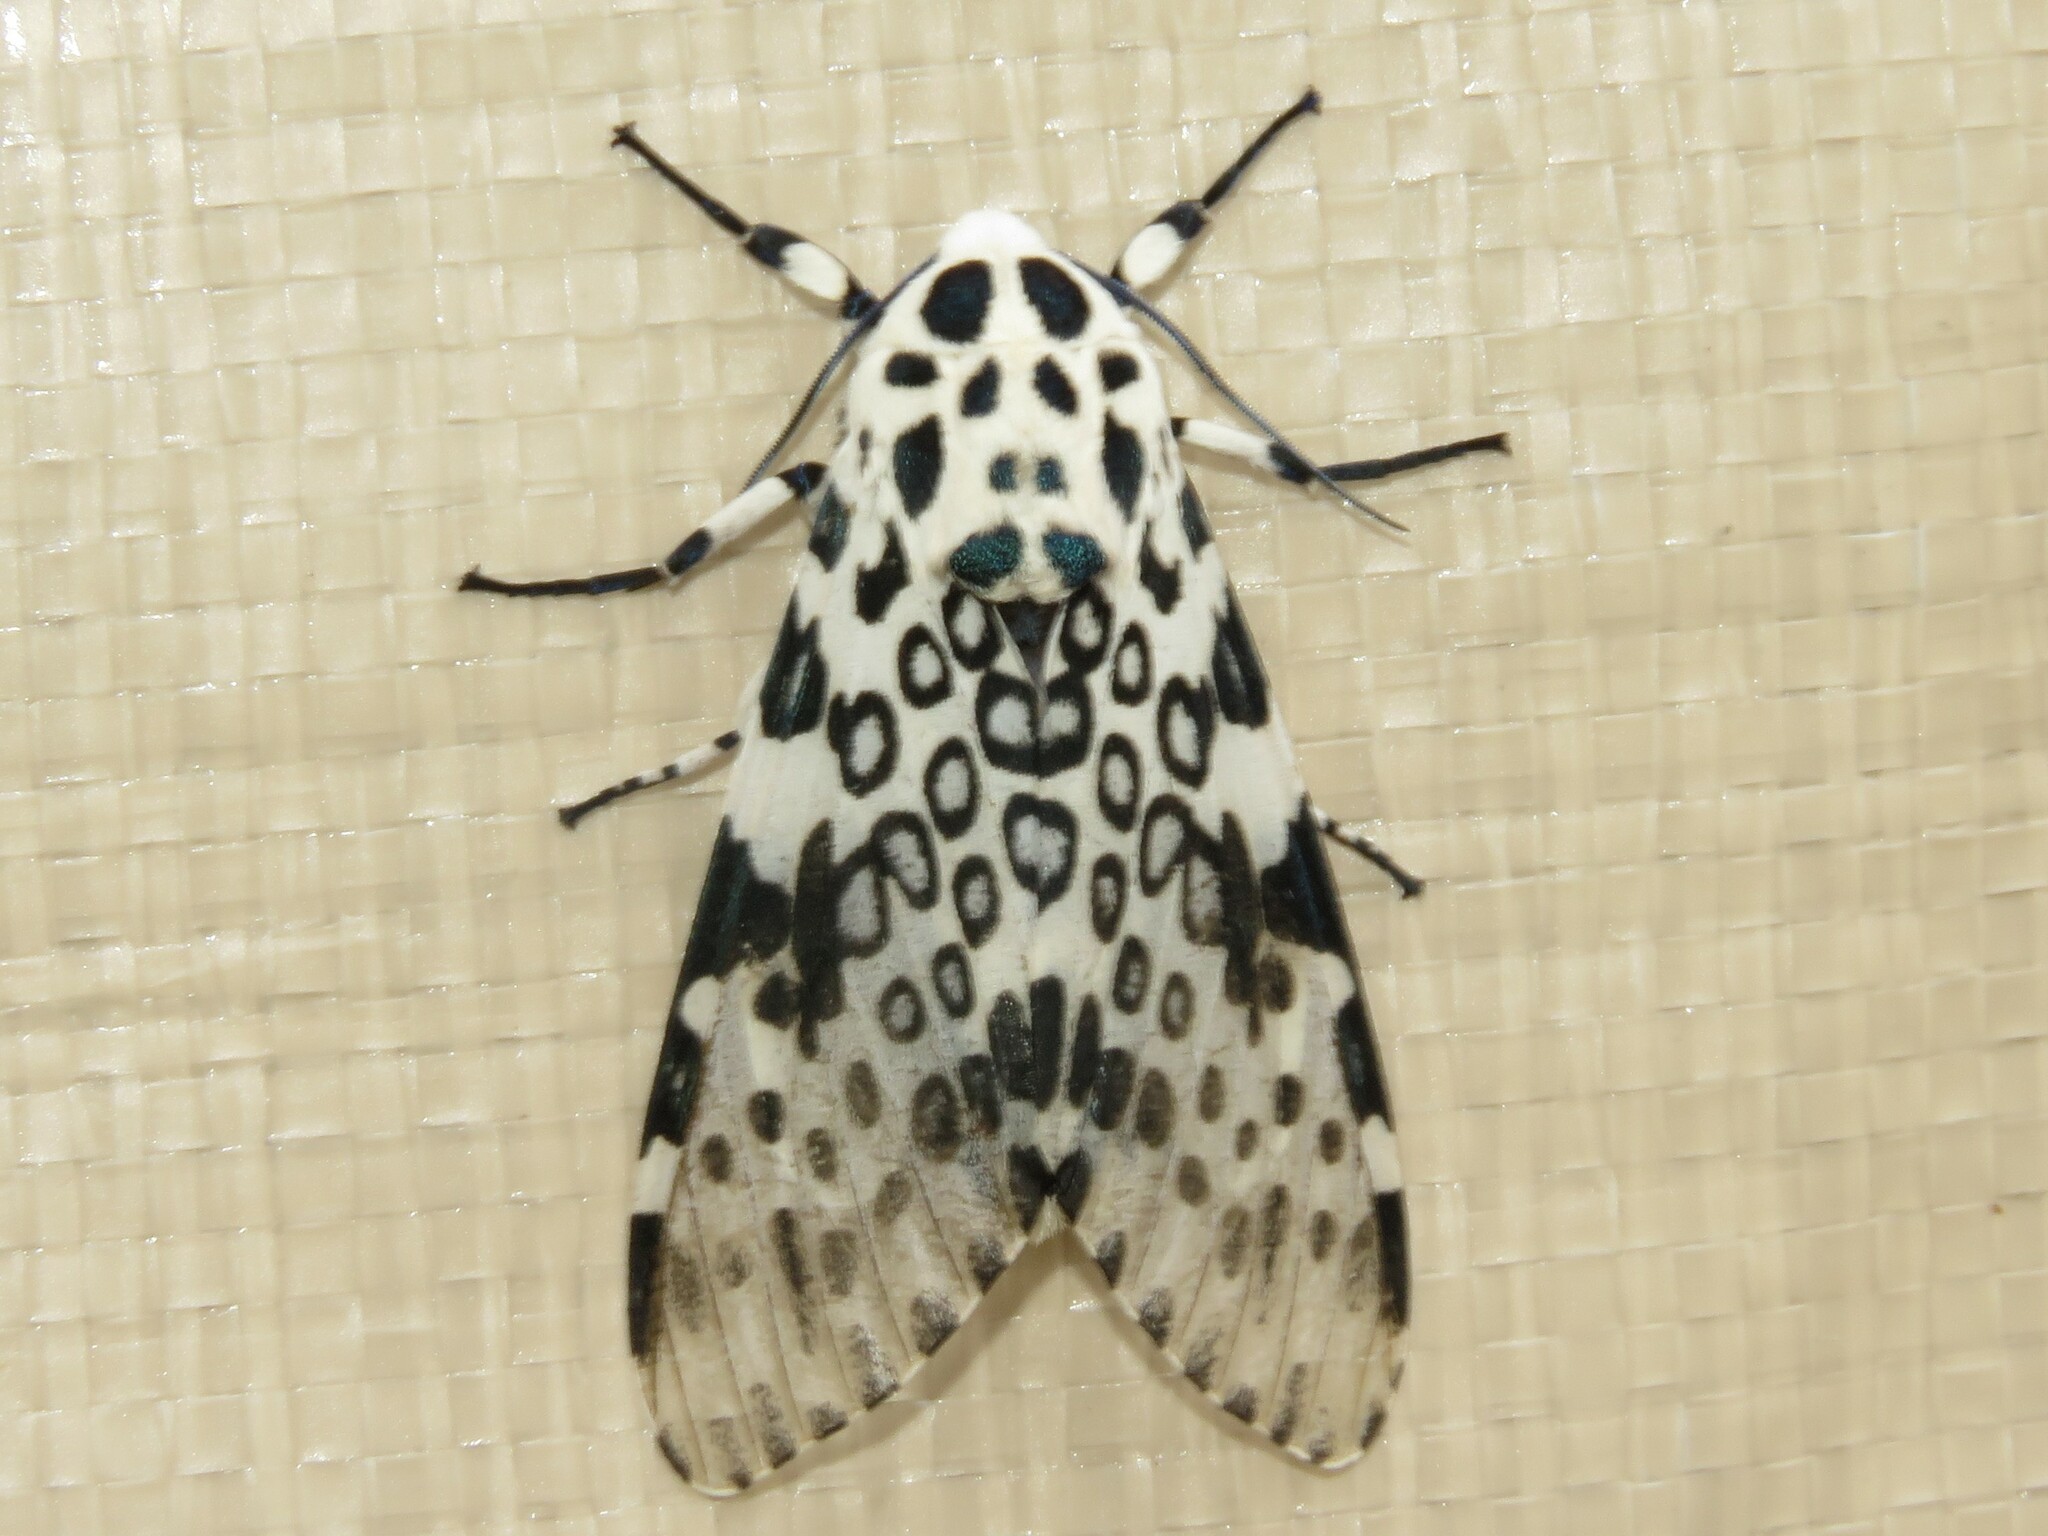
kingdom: Animalia
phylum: Arthropoda
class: Insecta
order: Lepidoptera
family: Erebidae
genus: Hypercompe
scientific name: Hypercompe scribonia
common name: Giant leopard moth
